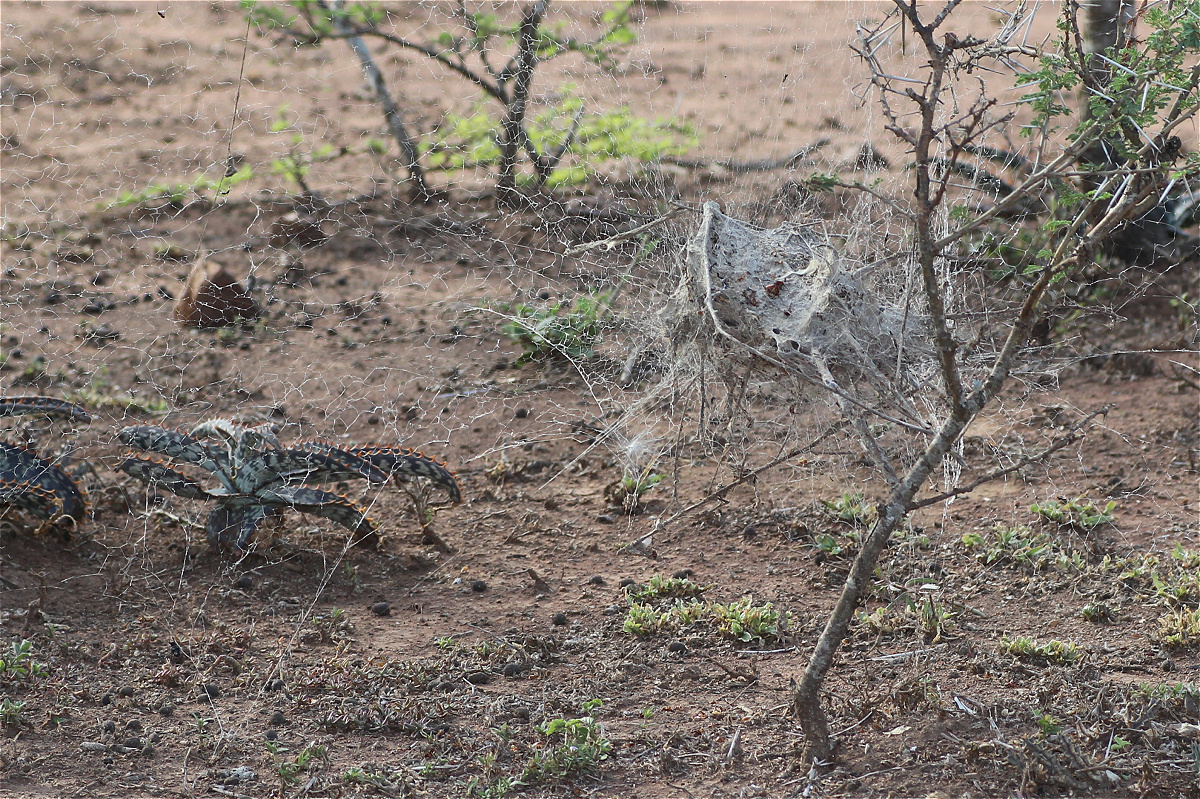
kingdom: Animalia
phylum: Arthropoda
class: Arachnida
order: Araneae
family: Eresidae
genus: Stegodyphus
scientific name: Stegodyphus dumicola
